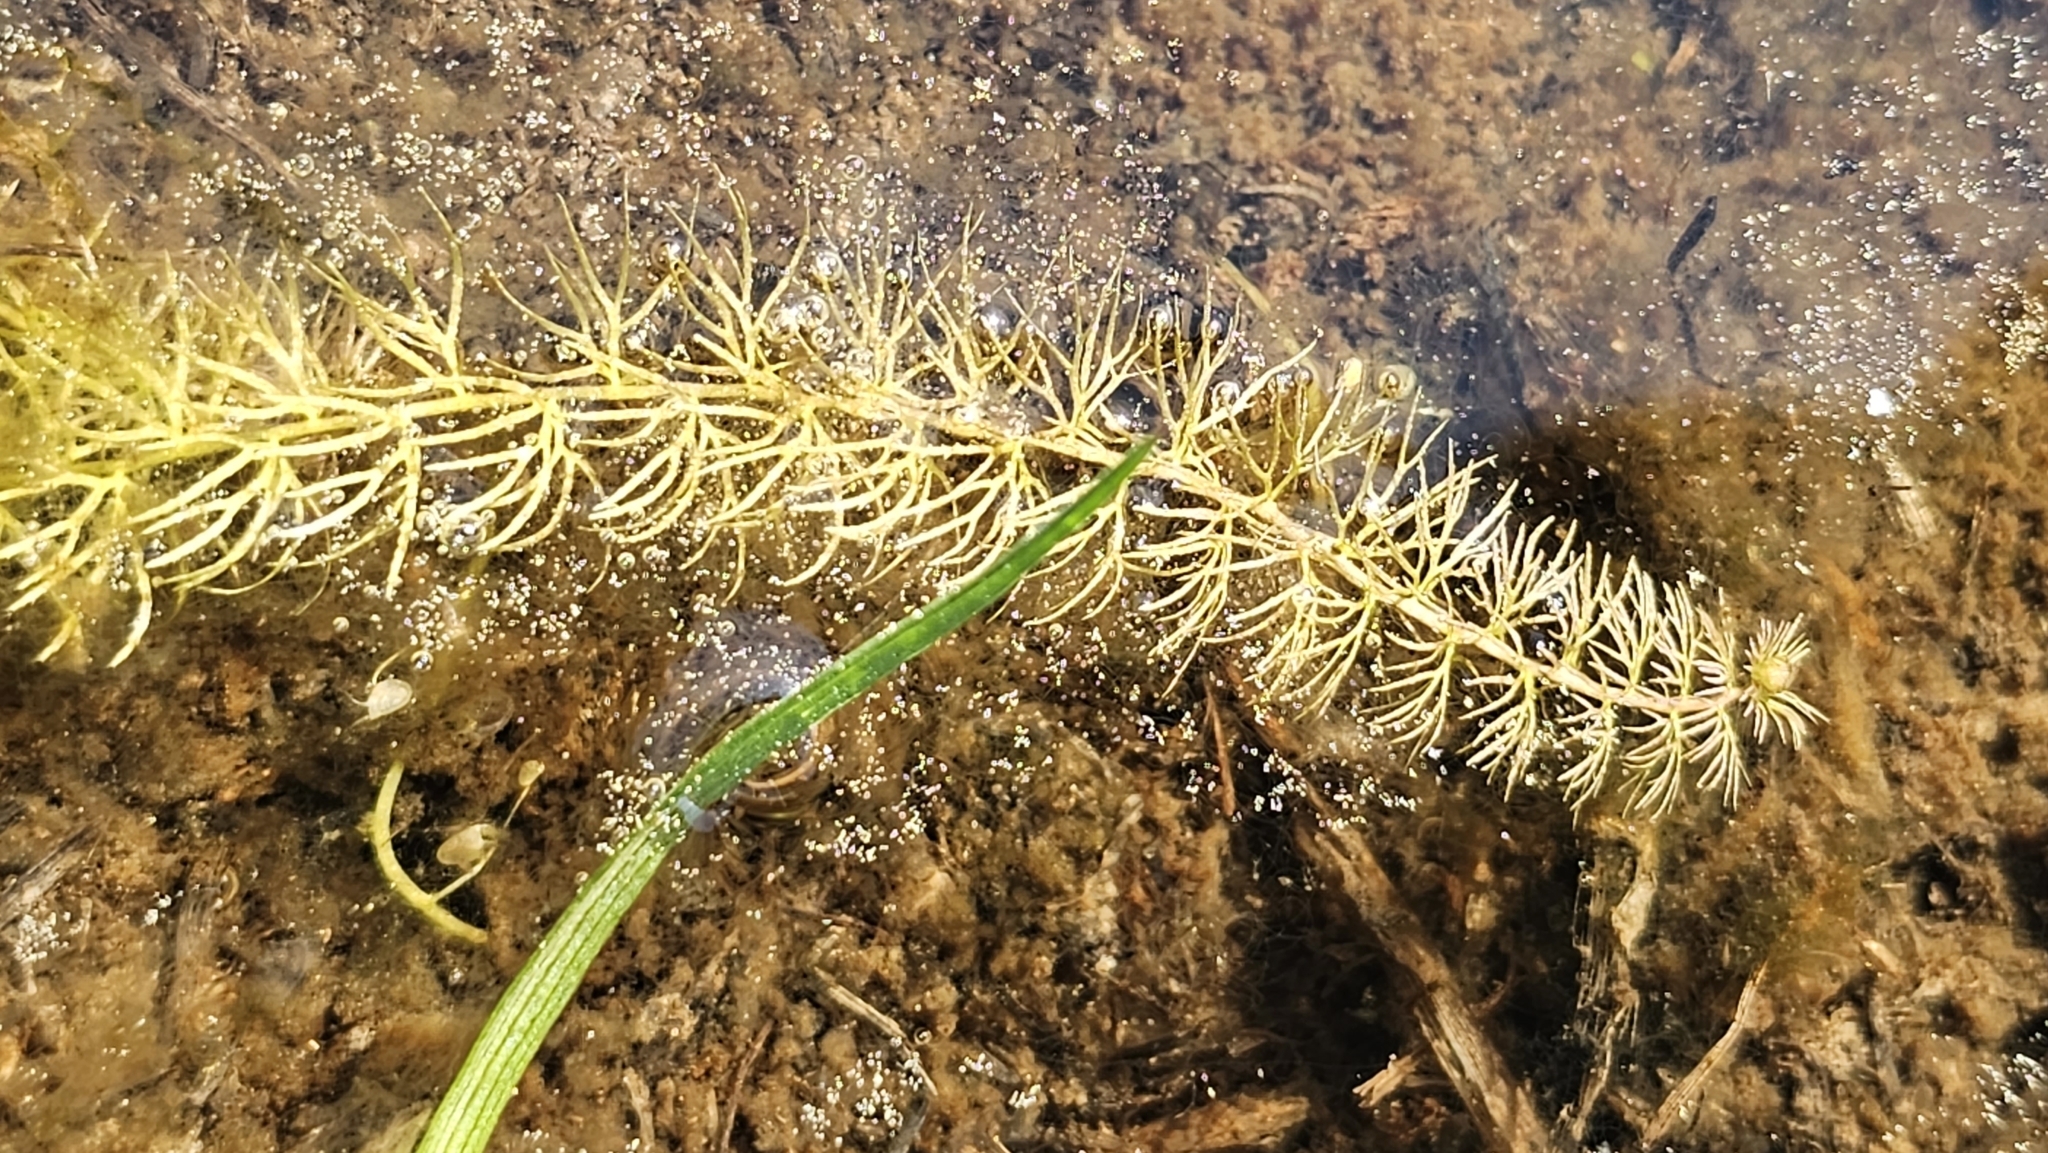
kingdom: Plantae
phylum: Tracheophyta
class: Magnoliopsida
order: Lamiales
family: Lentibulariaceae
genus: Utricularia
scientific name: Utricularia intermedia
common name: Intermediate bladderwort
